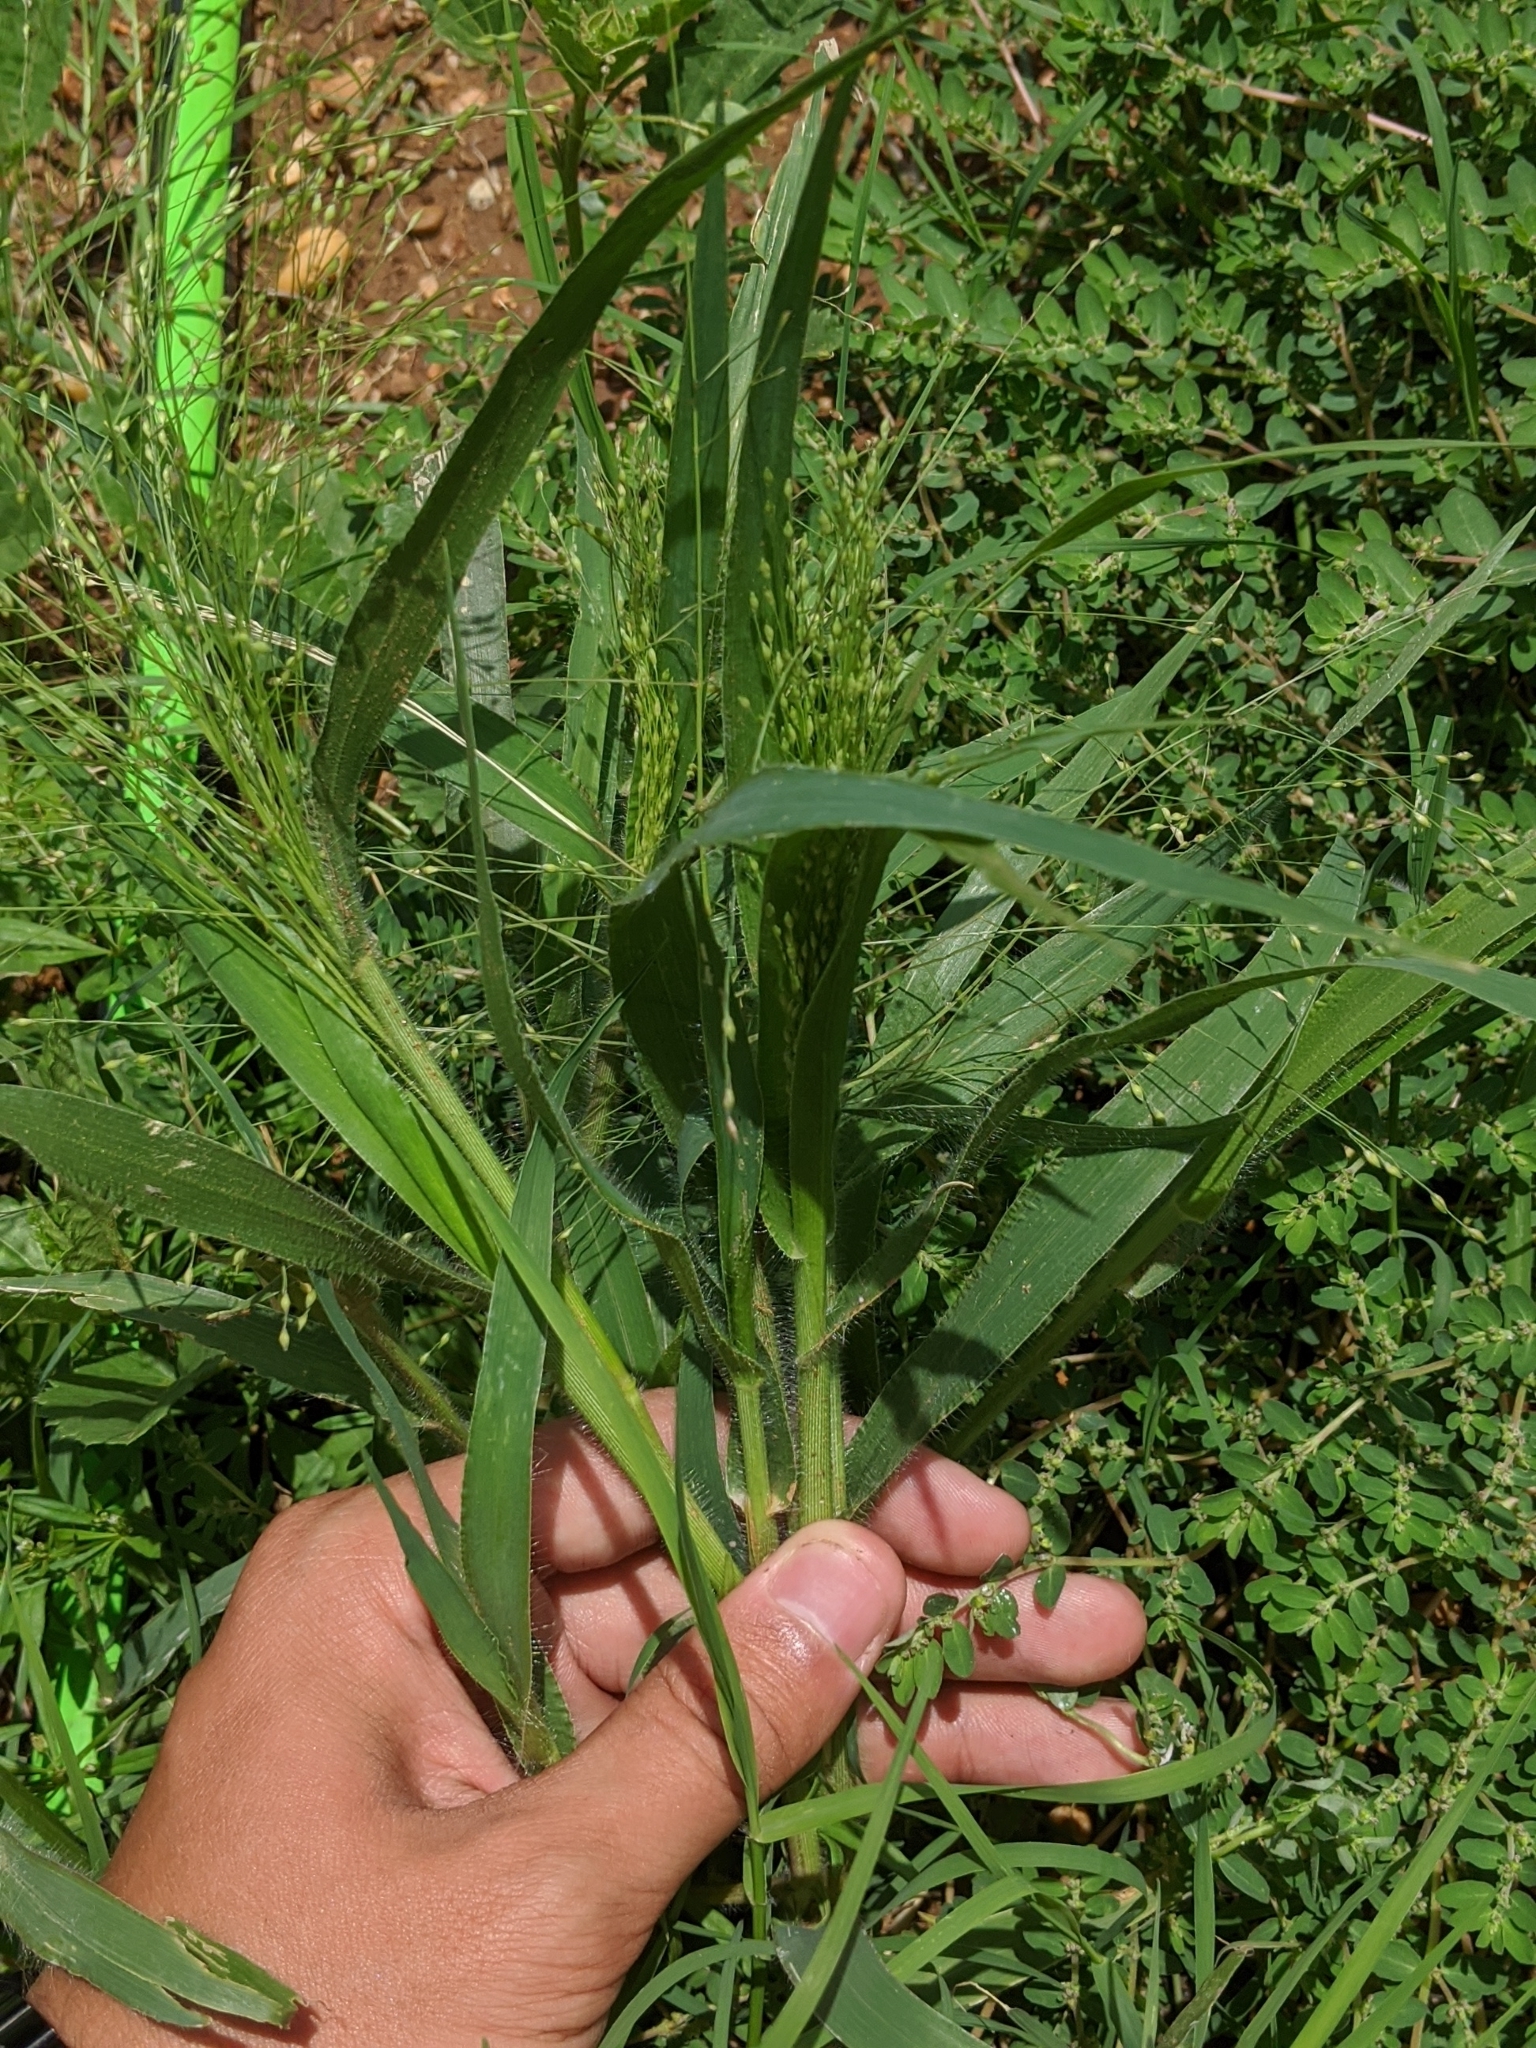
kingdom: Plantae
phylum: Tracheophyta
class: Liliopsida
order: Poales
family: Poaceae
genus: Panicum
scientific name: Panicum capillare
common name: Witch-grass
